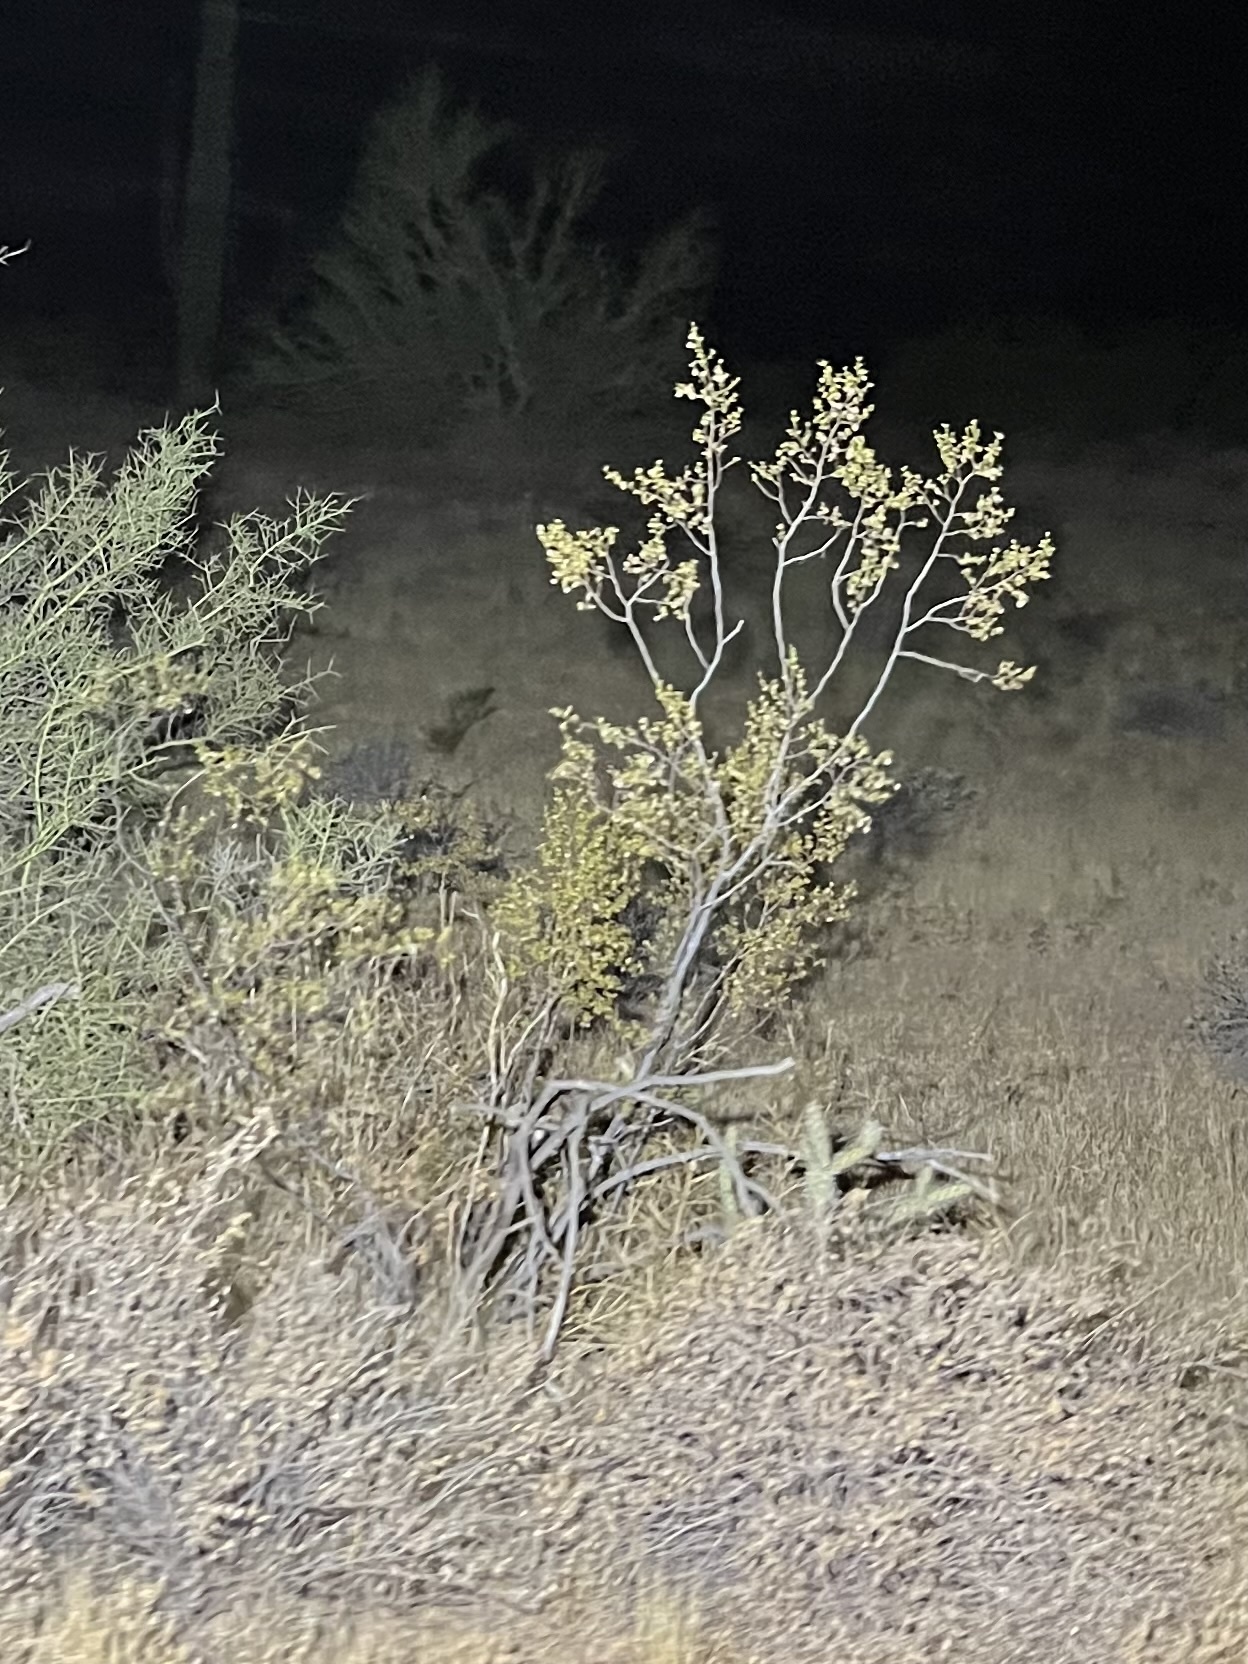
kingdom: Plantae
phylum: Tracheophyta
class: Magnoliopsida
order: Zygophyllales
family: Zygophyllaceae
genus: Larrea
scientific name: Larrea tridentata
